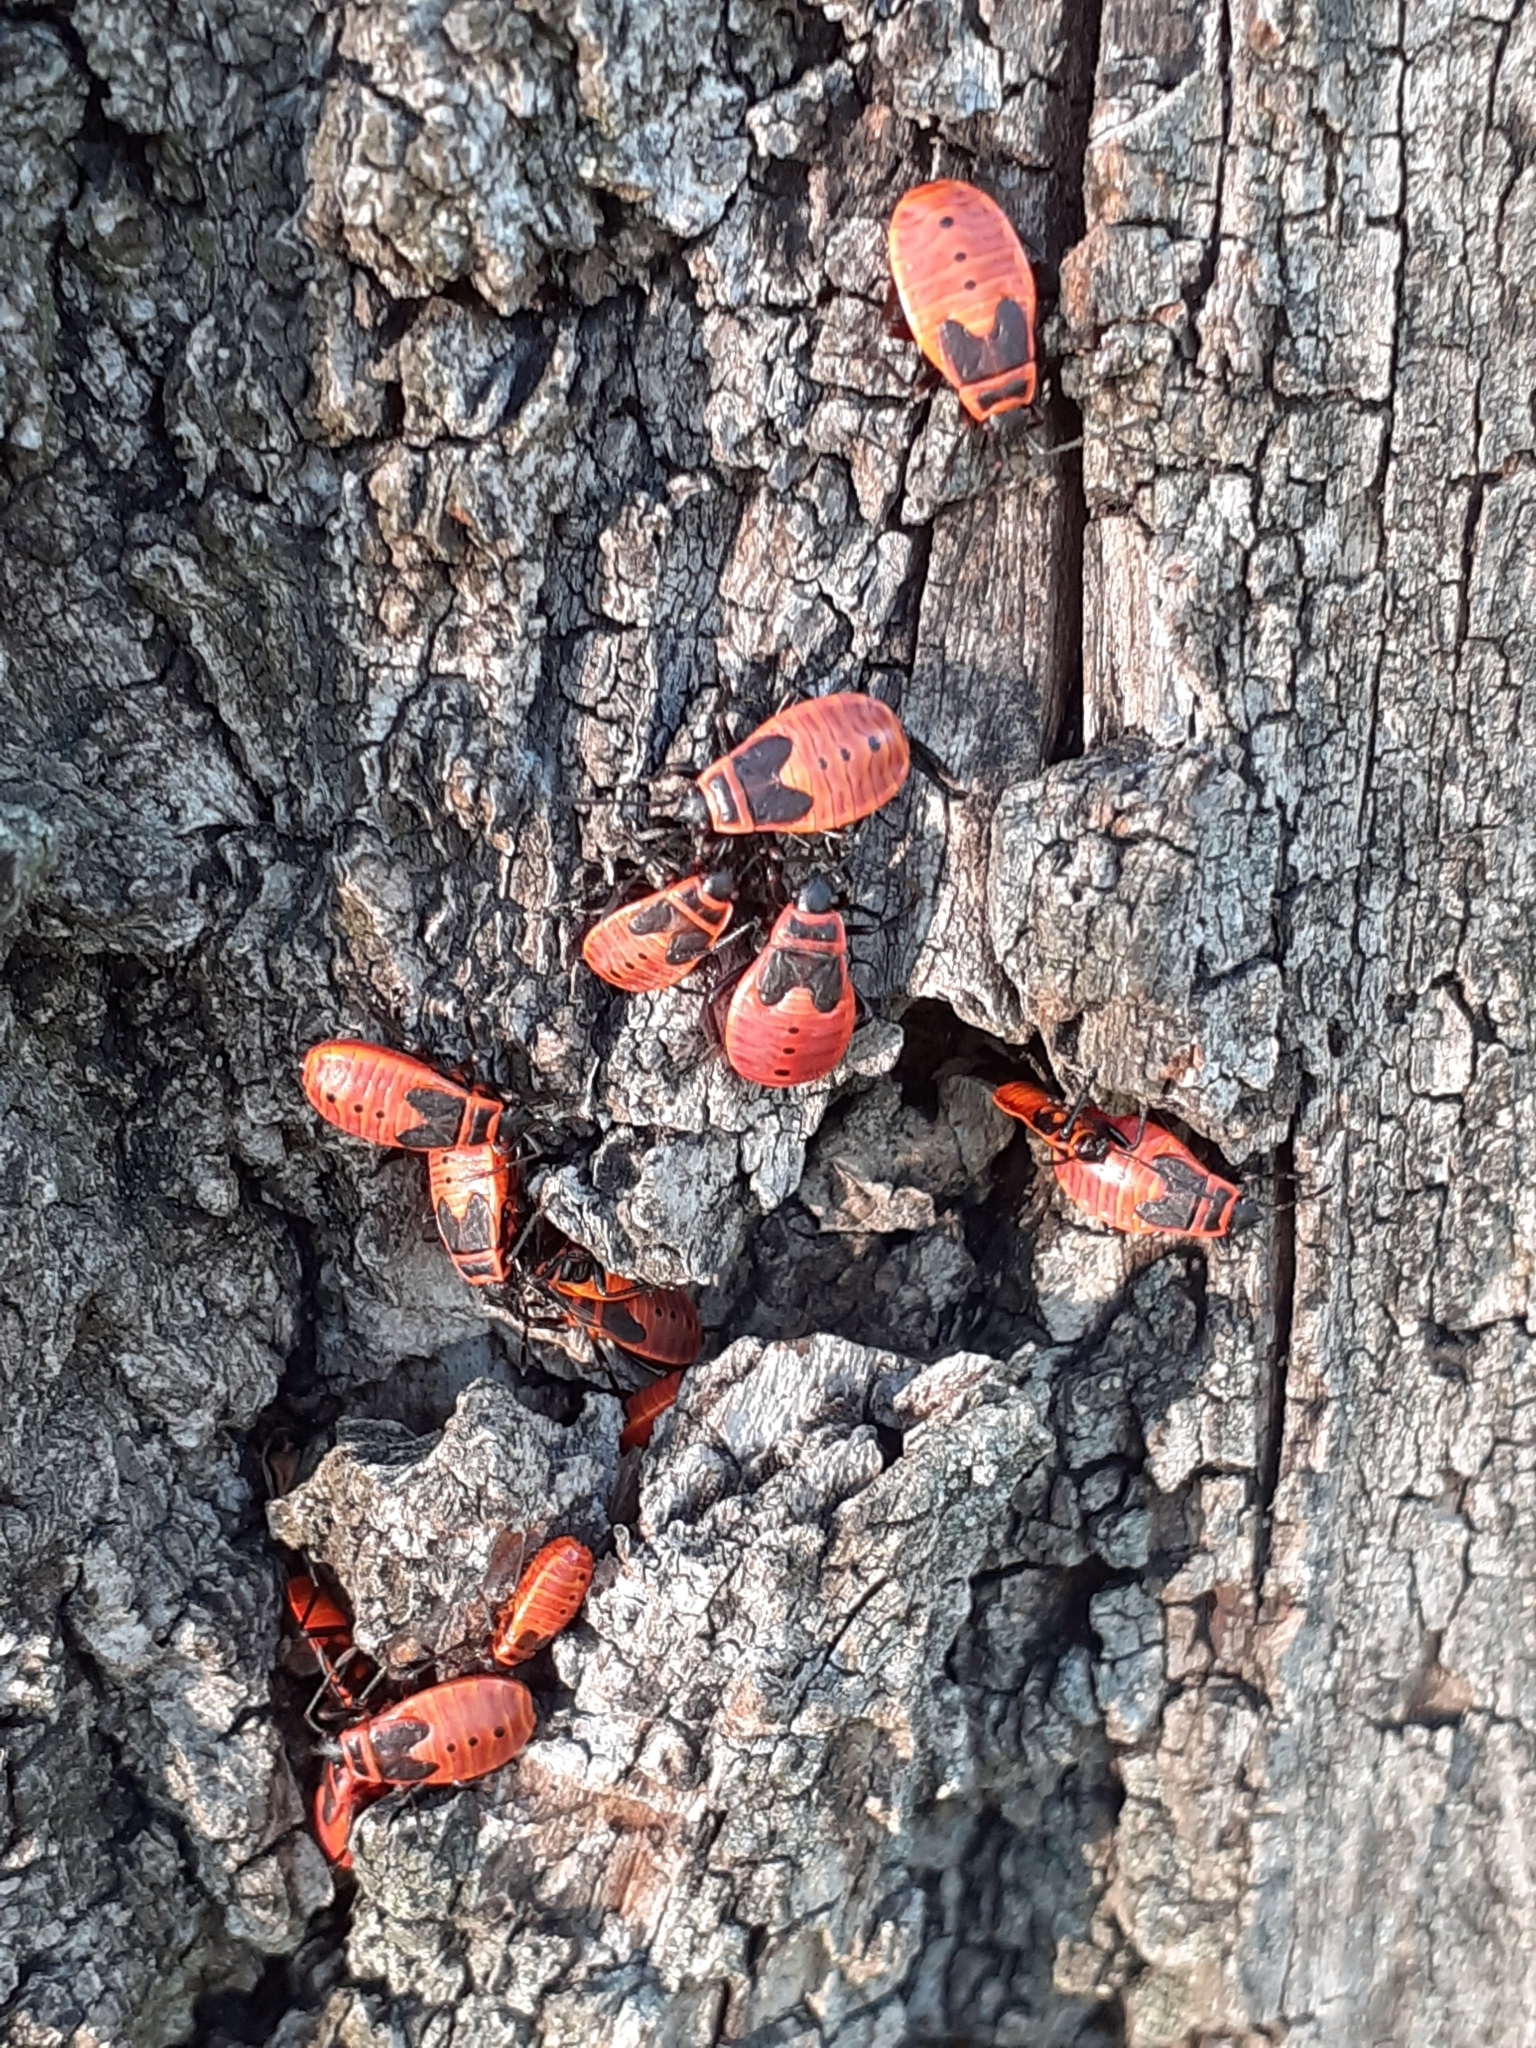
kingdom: Animalia
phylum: Arthropoda
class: Insecta
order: Hemiptera
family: Pyrrhocoridae
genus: Pyrrhocoris
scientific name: Pyrrhocoris apterus
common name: Firebug
